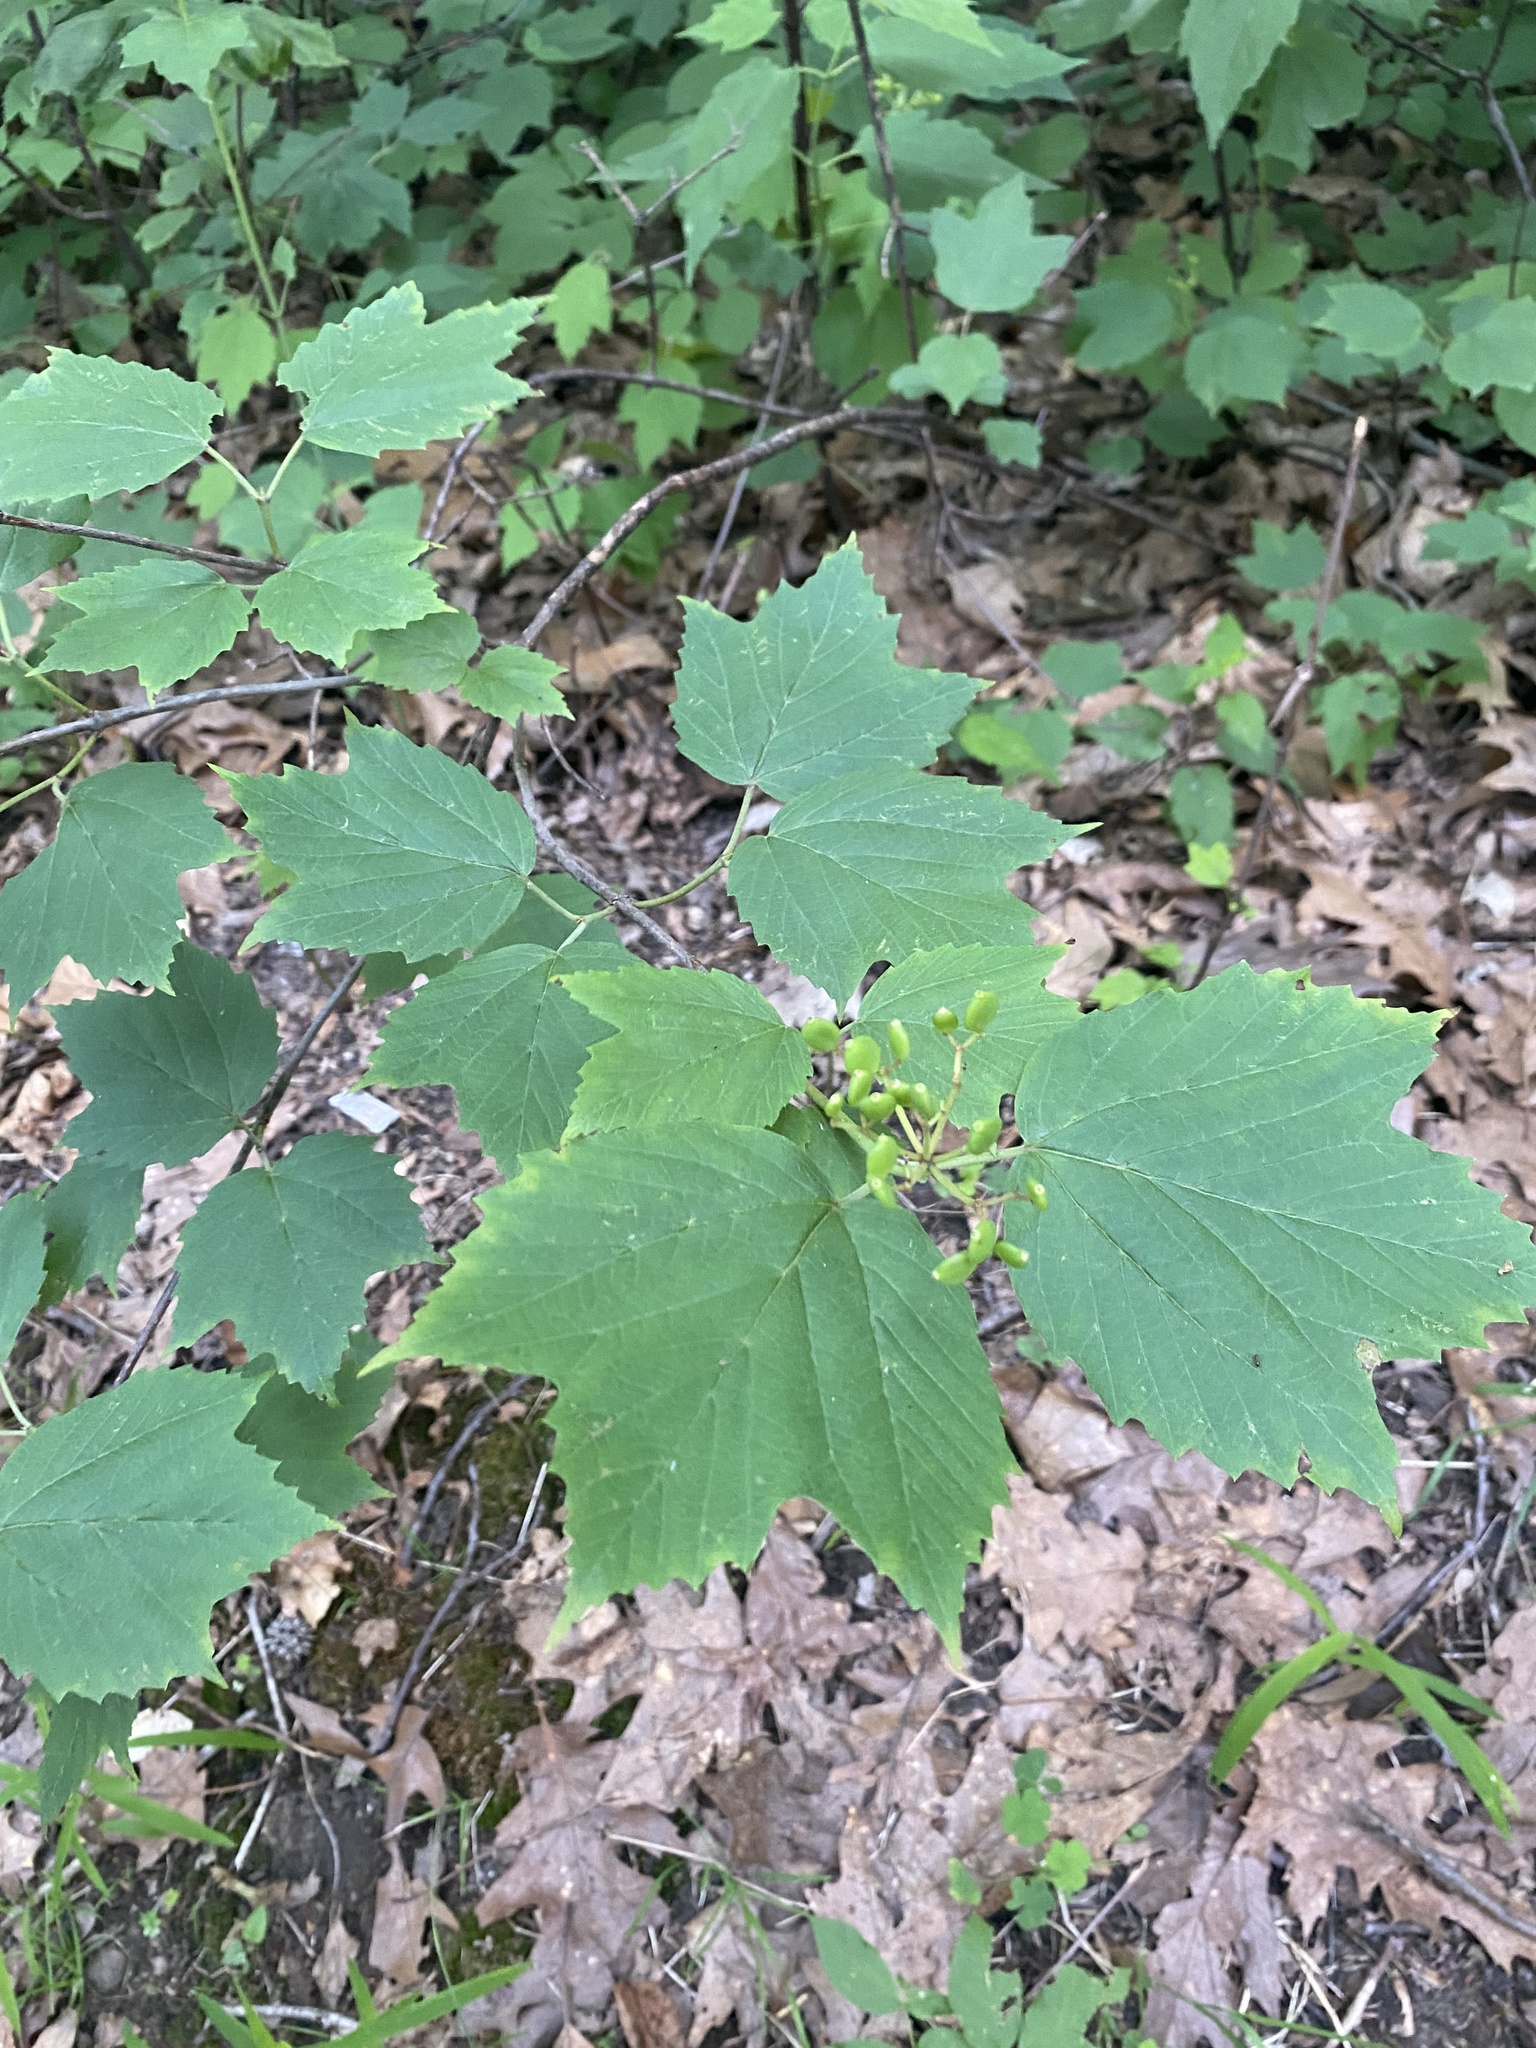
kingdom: Plantae
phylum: Tracheophyta
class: Magnoliopsida
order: Dipsacales
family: Viburnaceae
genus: Viburnum
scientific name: Viburnum acerifolium
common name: Dockmackie
